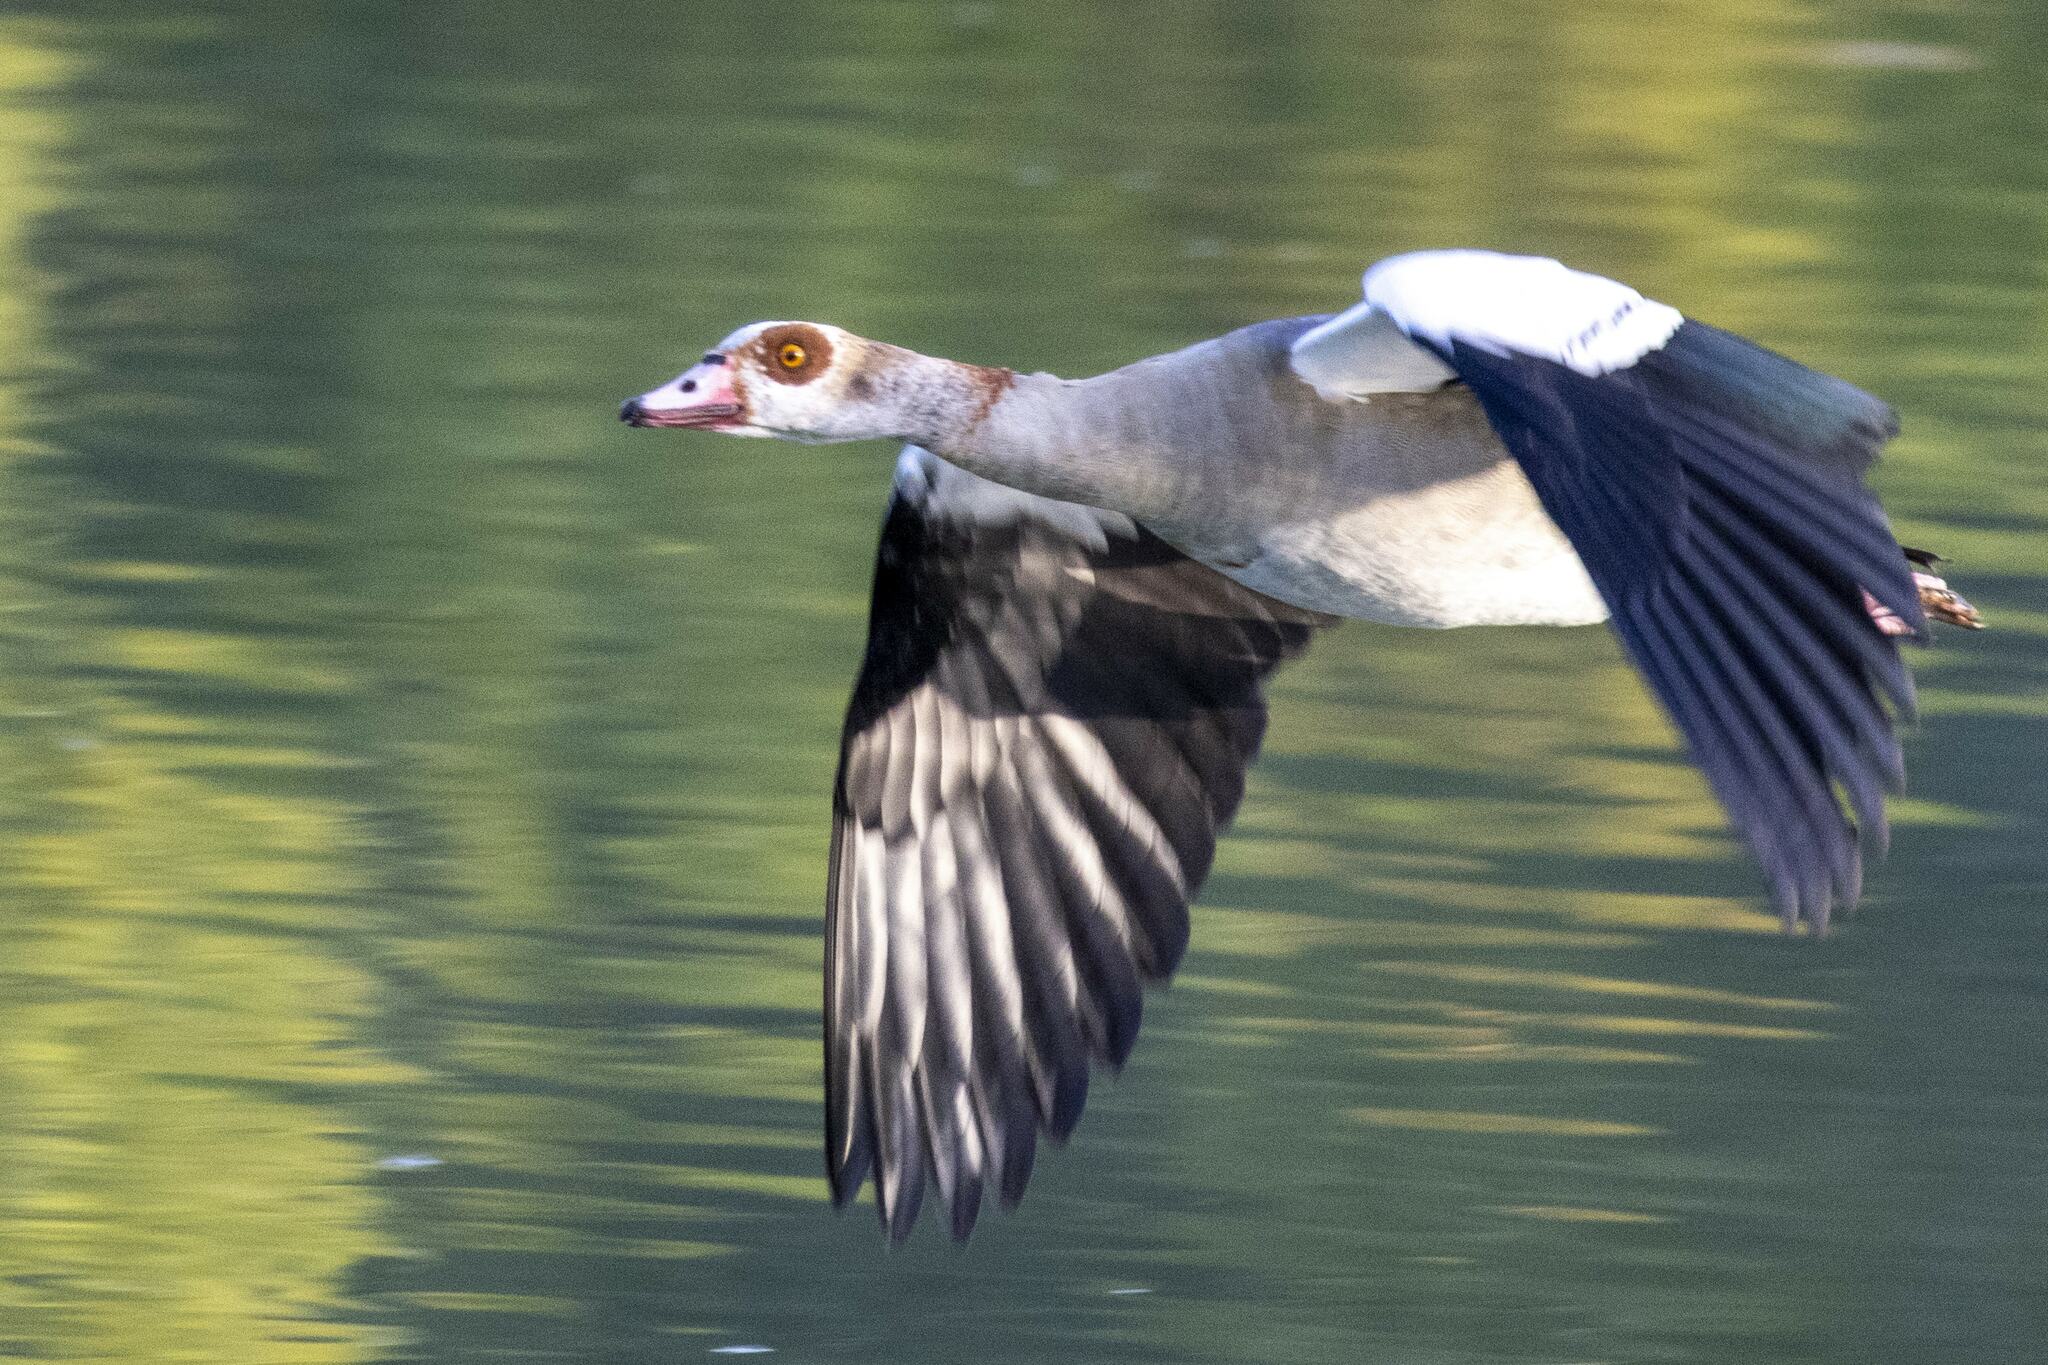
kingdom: Animalia
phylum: Chordata
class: Aves
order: Anseriformes
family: Anatidae
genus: Alopochen
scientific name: Alopochen aegyptiaca
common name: Egyptian goose
